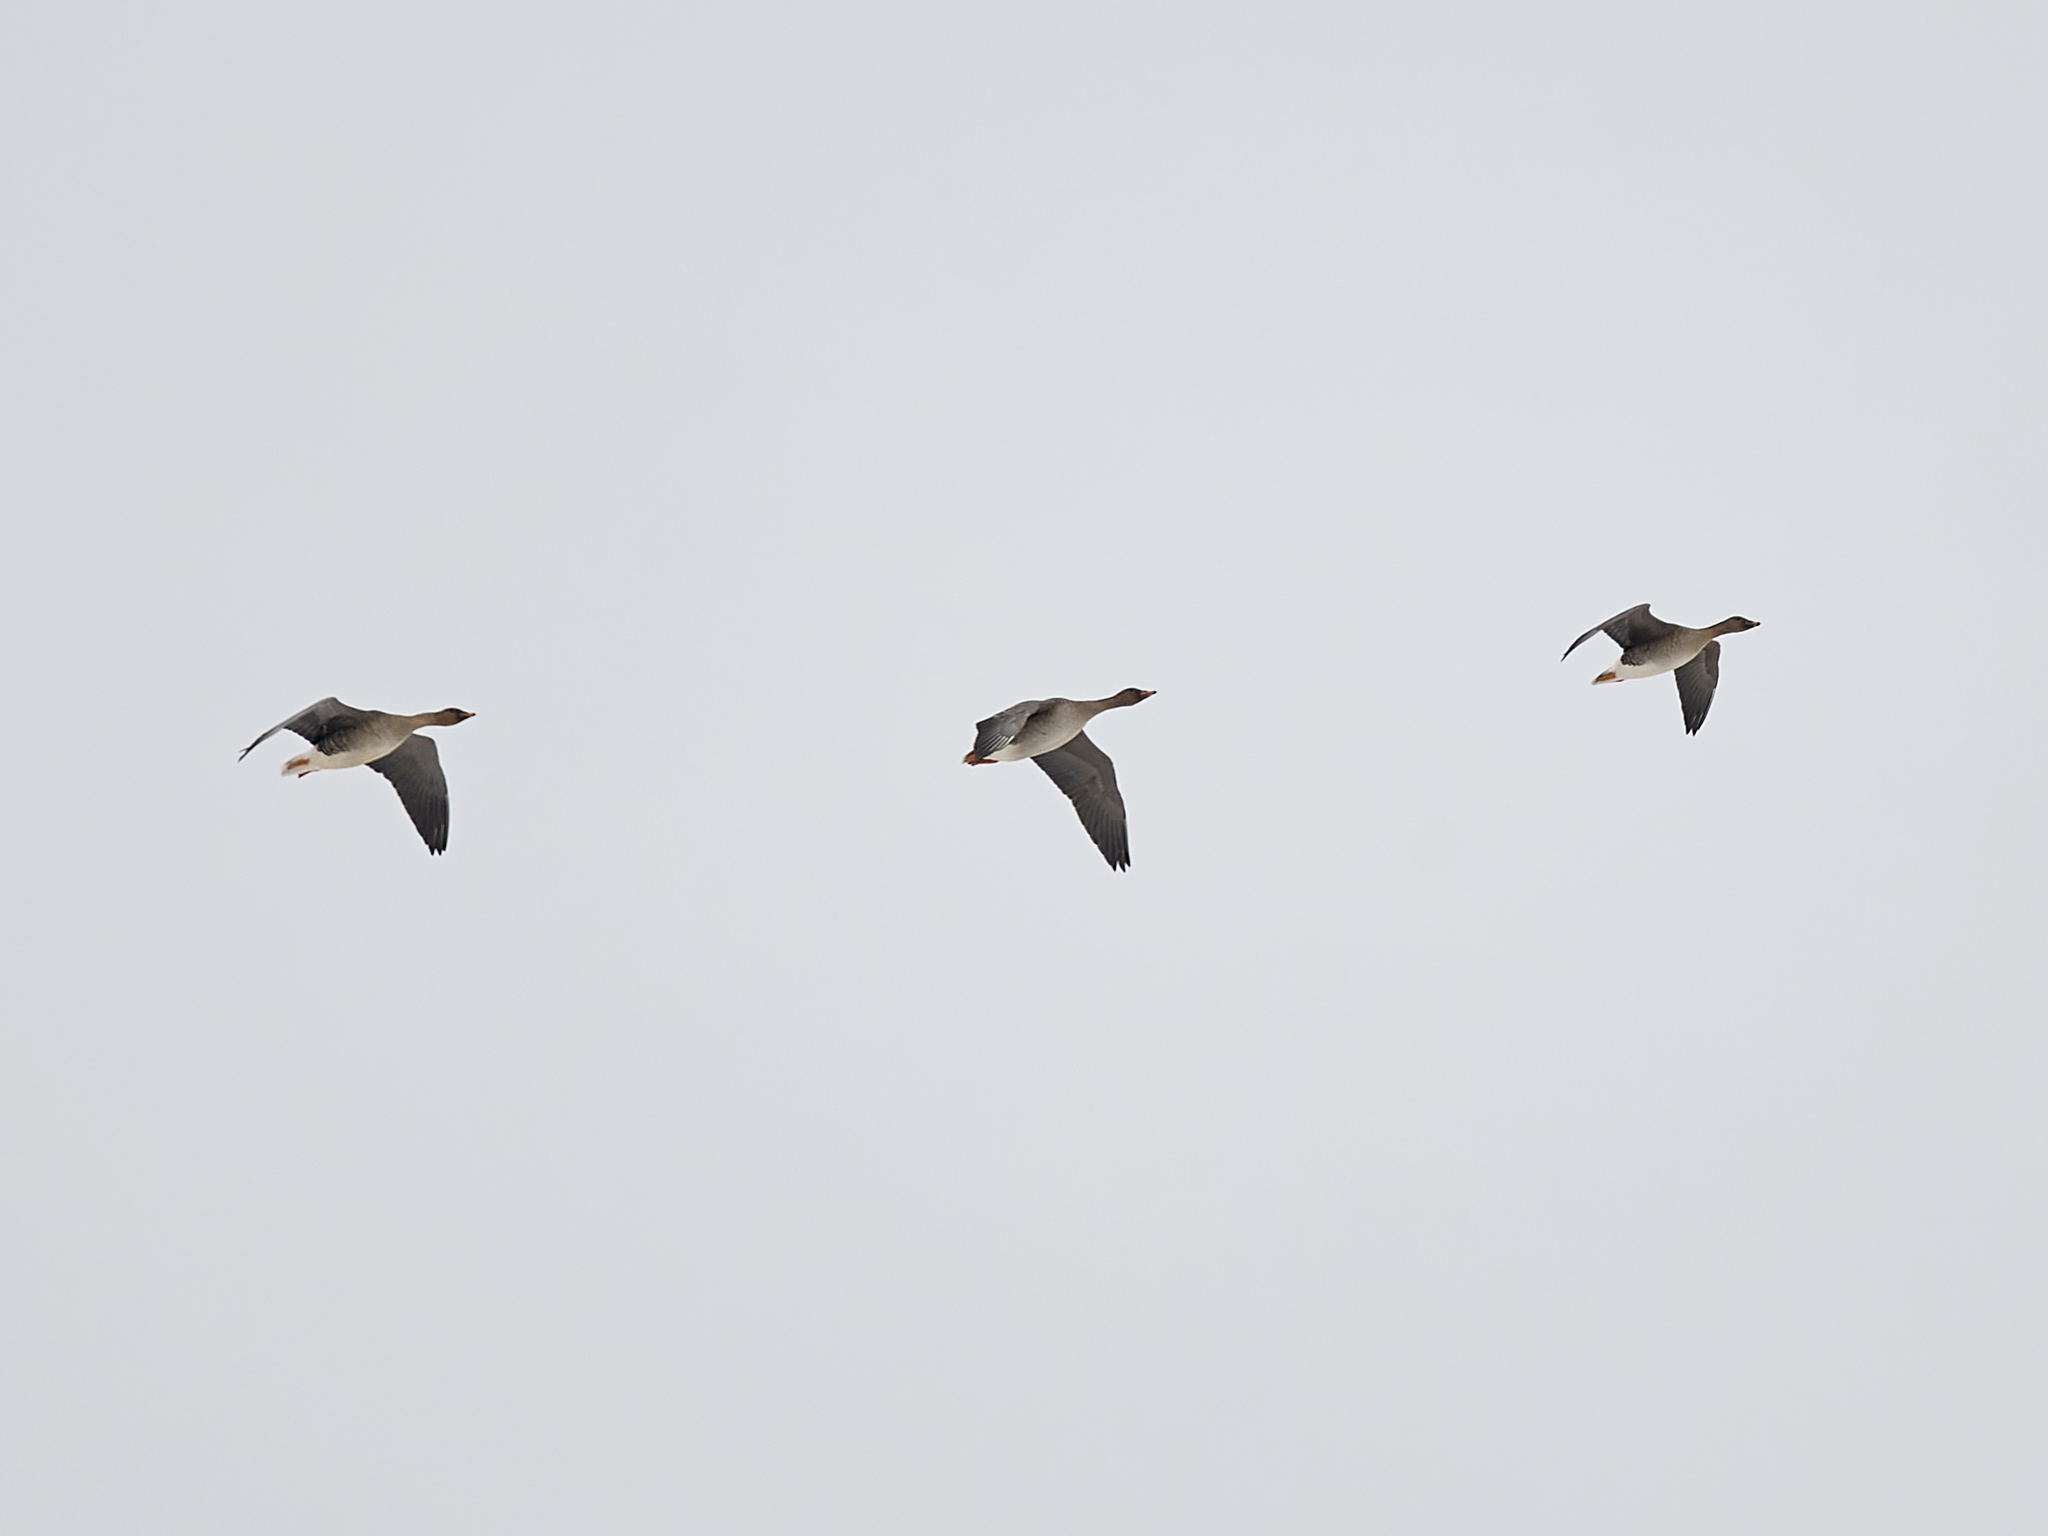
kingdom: Animalia
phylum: Chordata
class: Aves
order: Anseriformes
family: Anatidae
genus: Anser
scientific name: Anser fabalis
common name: Bean goose
